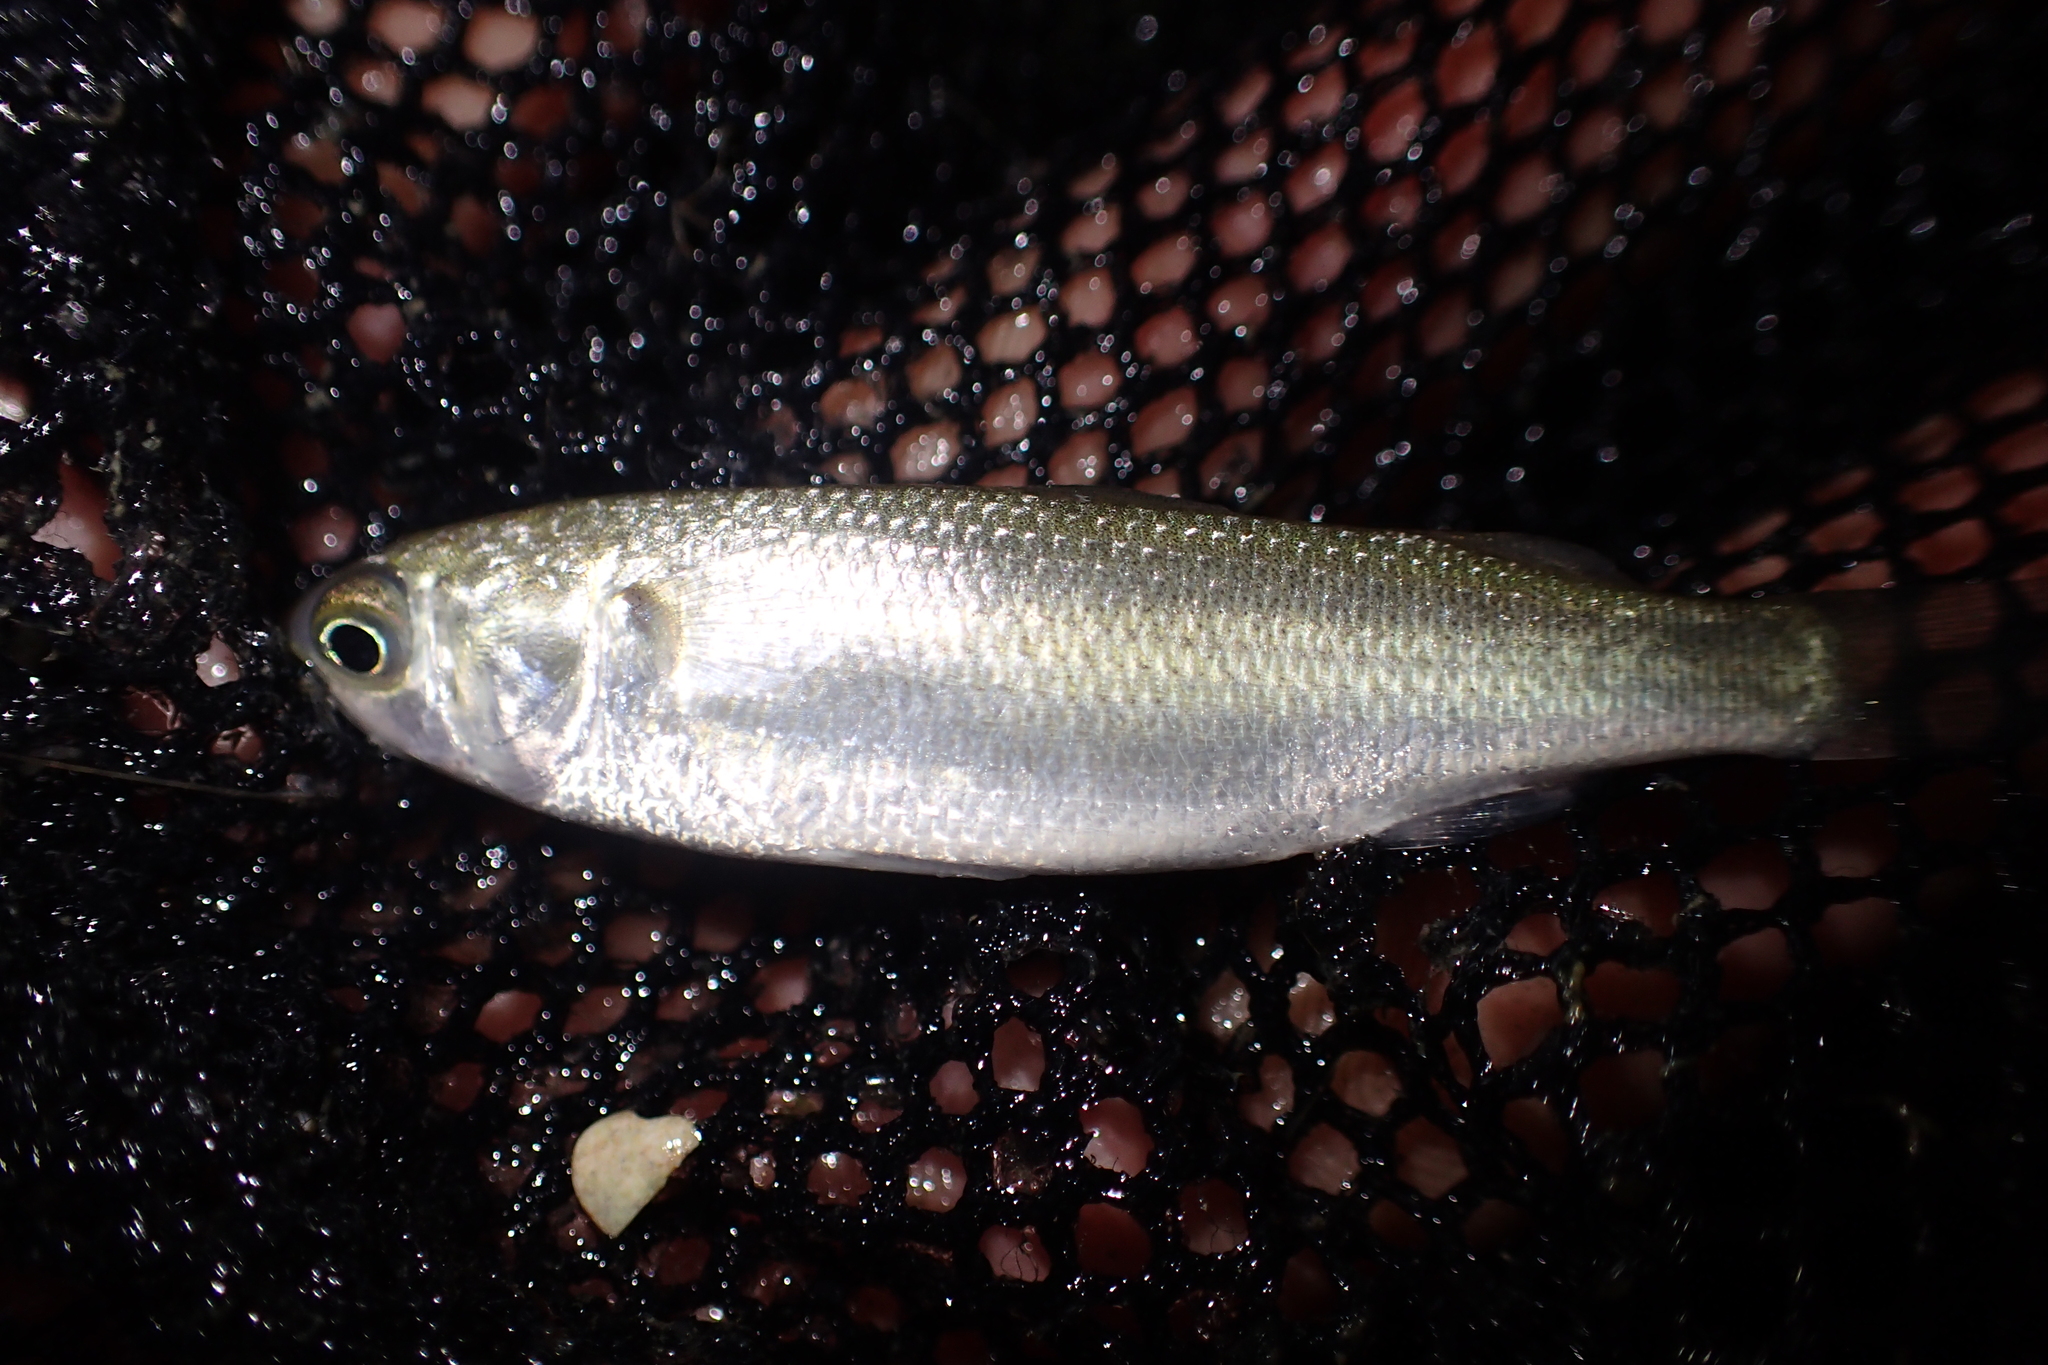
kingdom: Animalia
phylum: Chordata
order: Mugiliformes
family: Mugilidae
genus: Mugil
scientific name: Mugil cephalus
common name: Grey mullet
